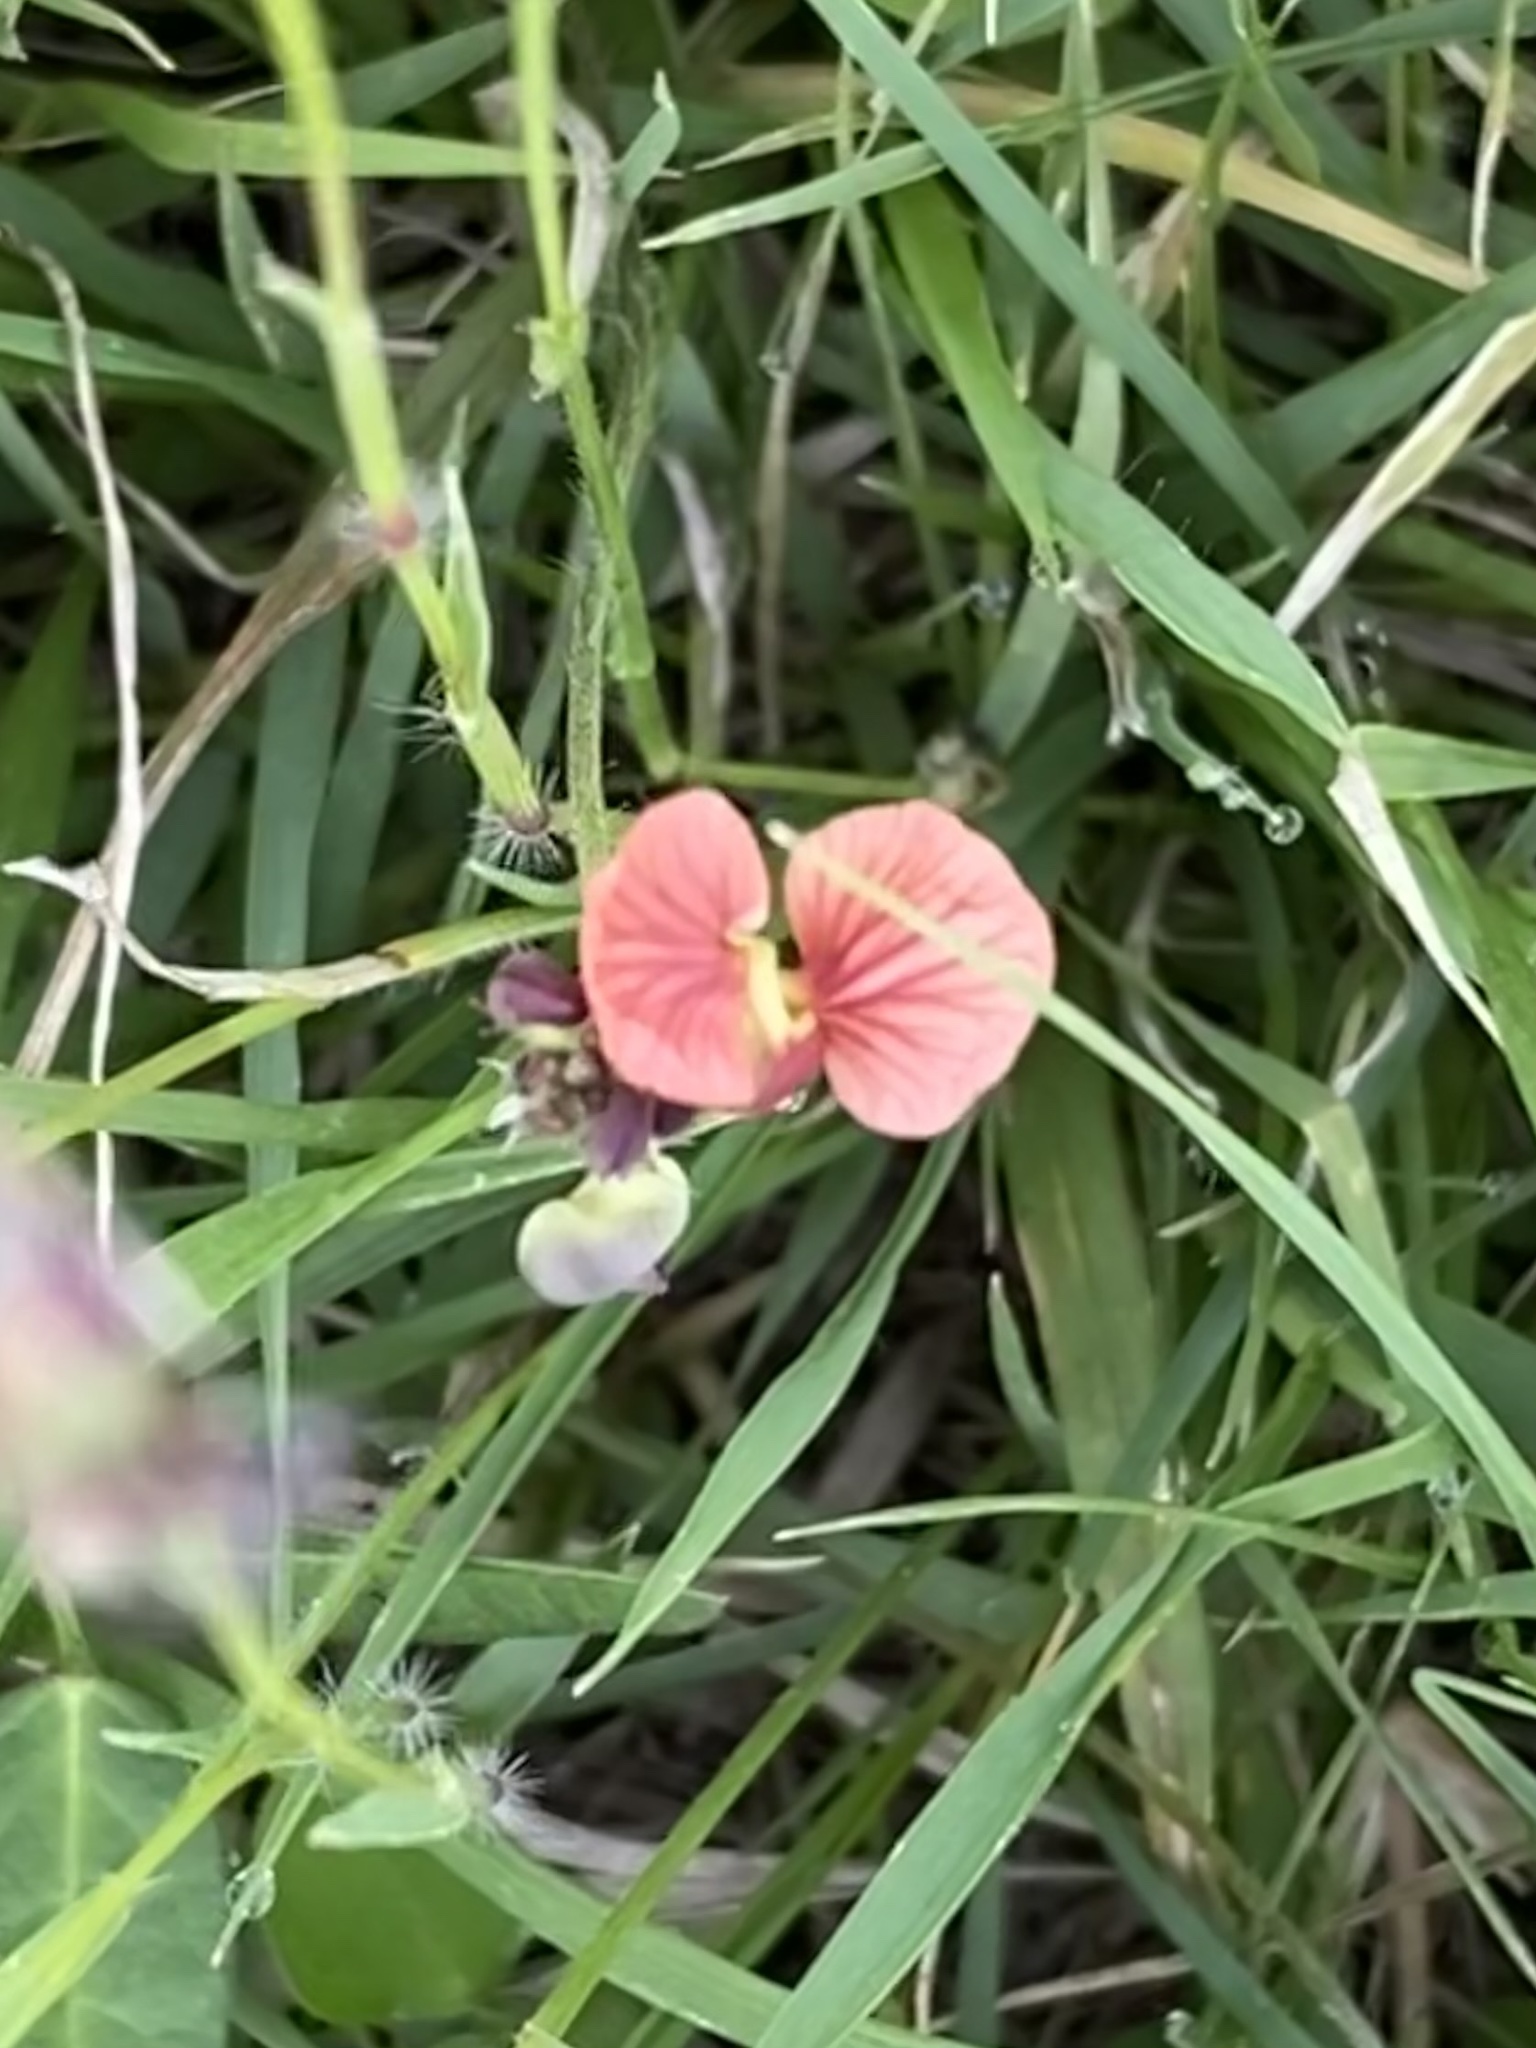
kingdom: Plantae
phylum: Tracheophyta
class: Magnoliopsida
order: Fabales
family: Fabaceae
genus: Macroptilium
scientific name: Macroptilium gibbosifolium
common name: Variableleaf bushbean
